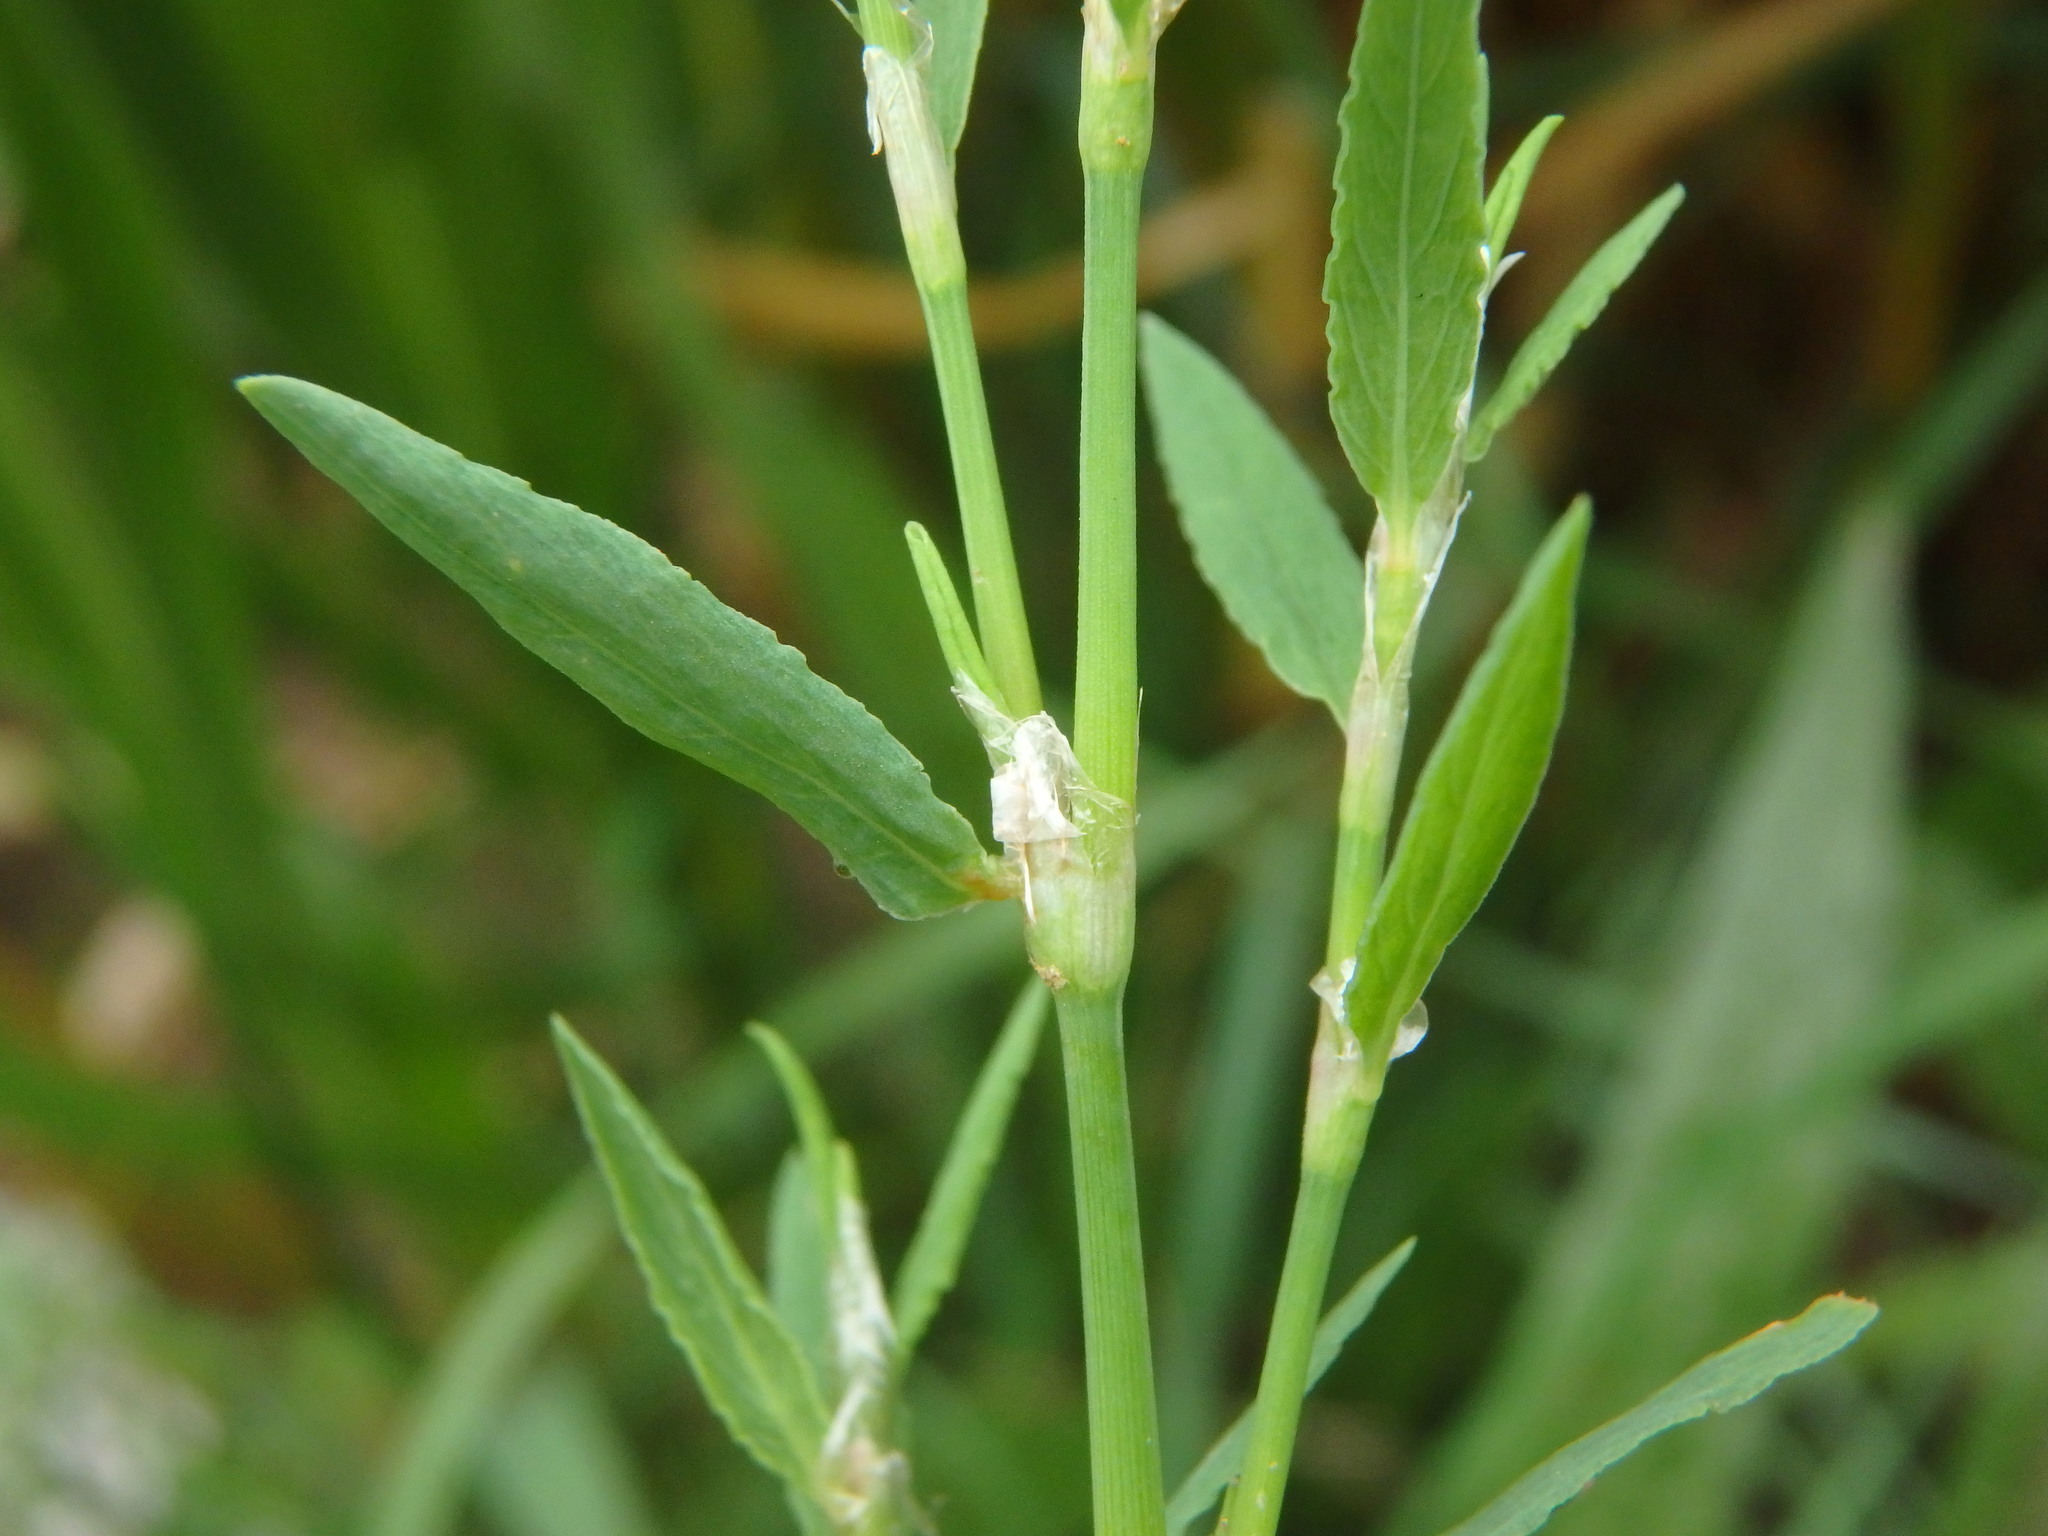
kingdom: Plantae
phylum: Tracheophyta
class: Magnoliopsida
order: Caryophyllales
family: Polygonaceae
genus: Polygonum
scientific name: Polygonum aviculare
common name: Prostrate knotweed
